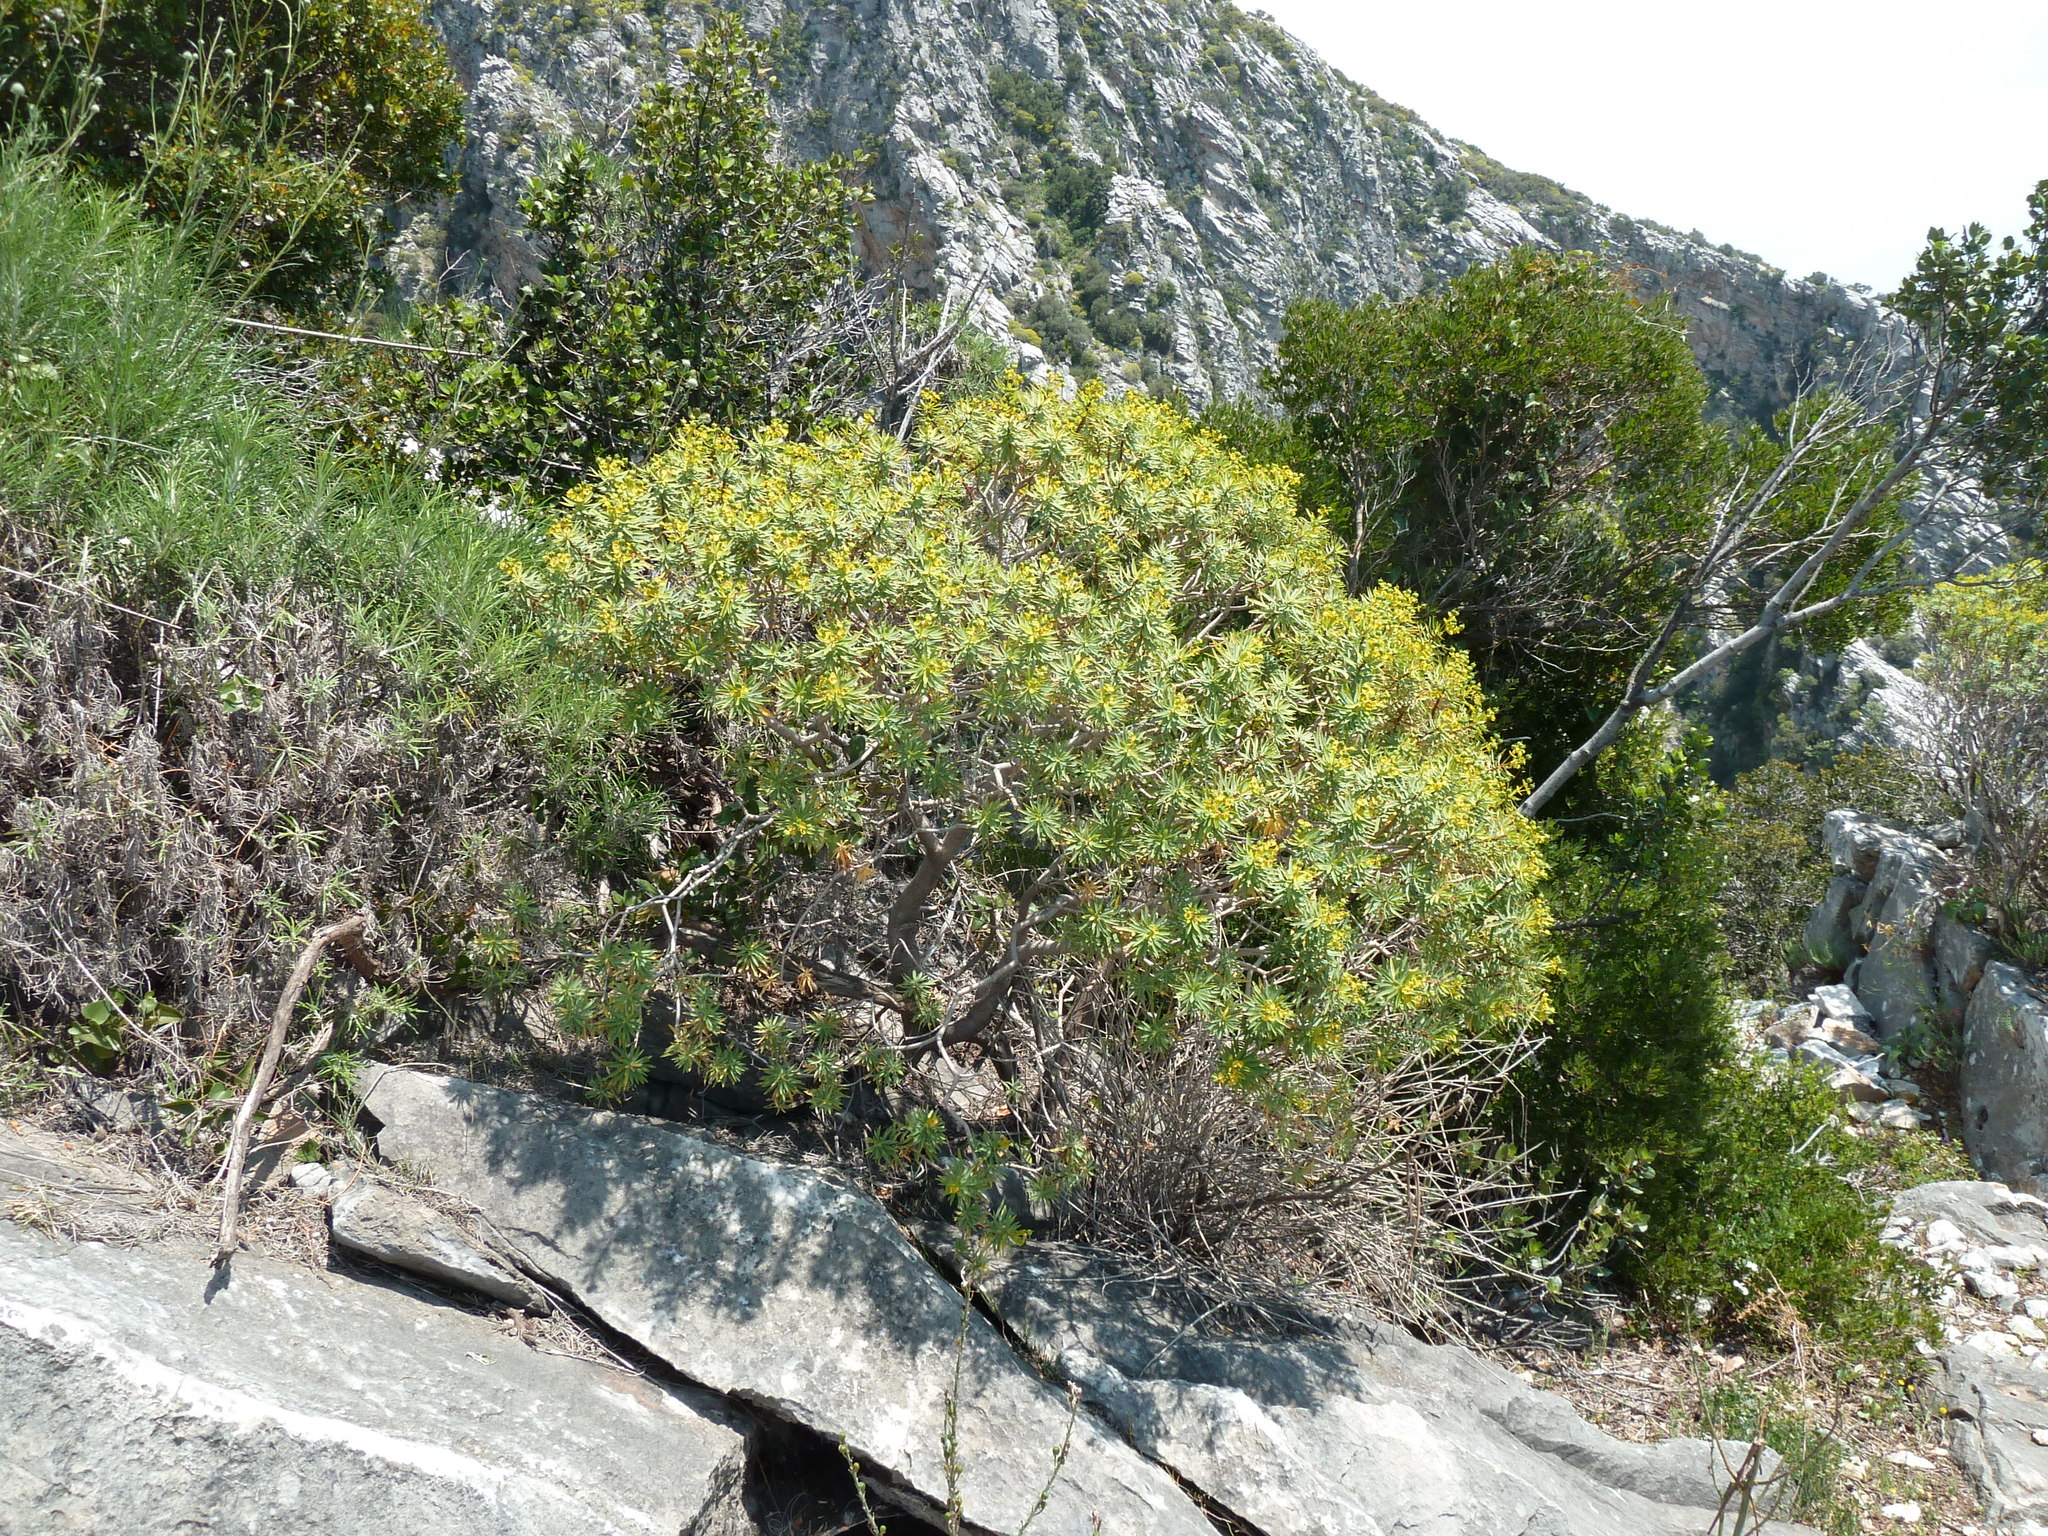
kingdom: Plantae
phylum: Tracheophyta
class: Magnoliopsida
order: Malpighiales
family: Euphorbiaceae
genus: Euphorbia
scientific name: Euphorbia dendroides
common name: Tree spurge
